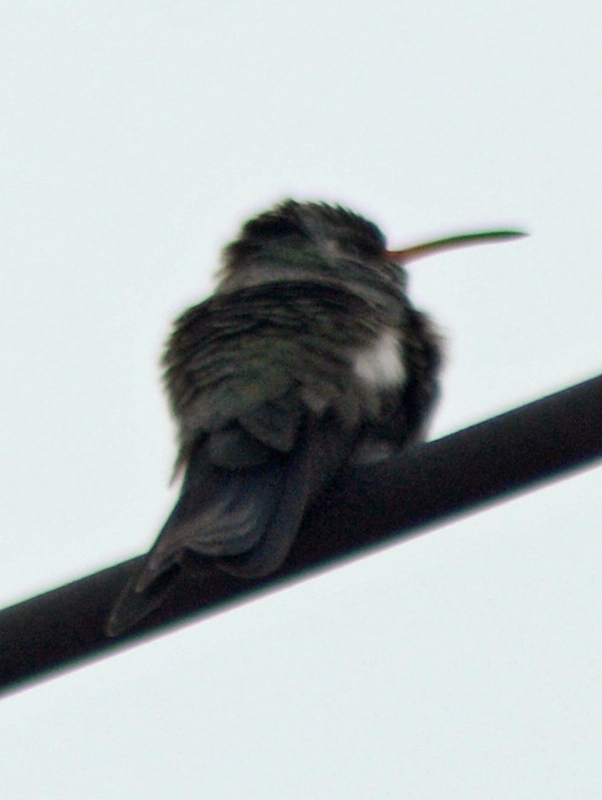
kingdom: Animalia
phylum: Chordata
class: Aves
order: Apodiformes
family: Trochilidae
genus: Cynanthus
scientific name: Cynanthus latirostris
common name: Broad-billed hummingbird
